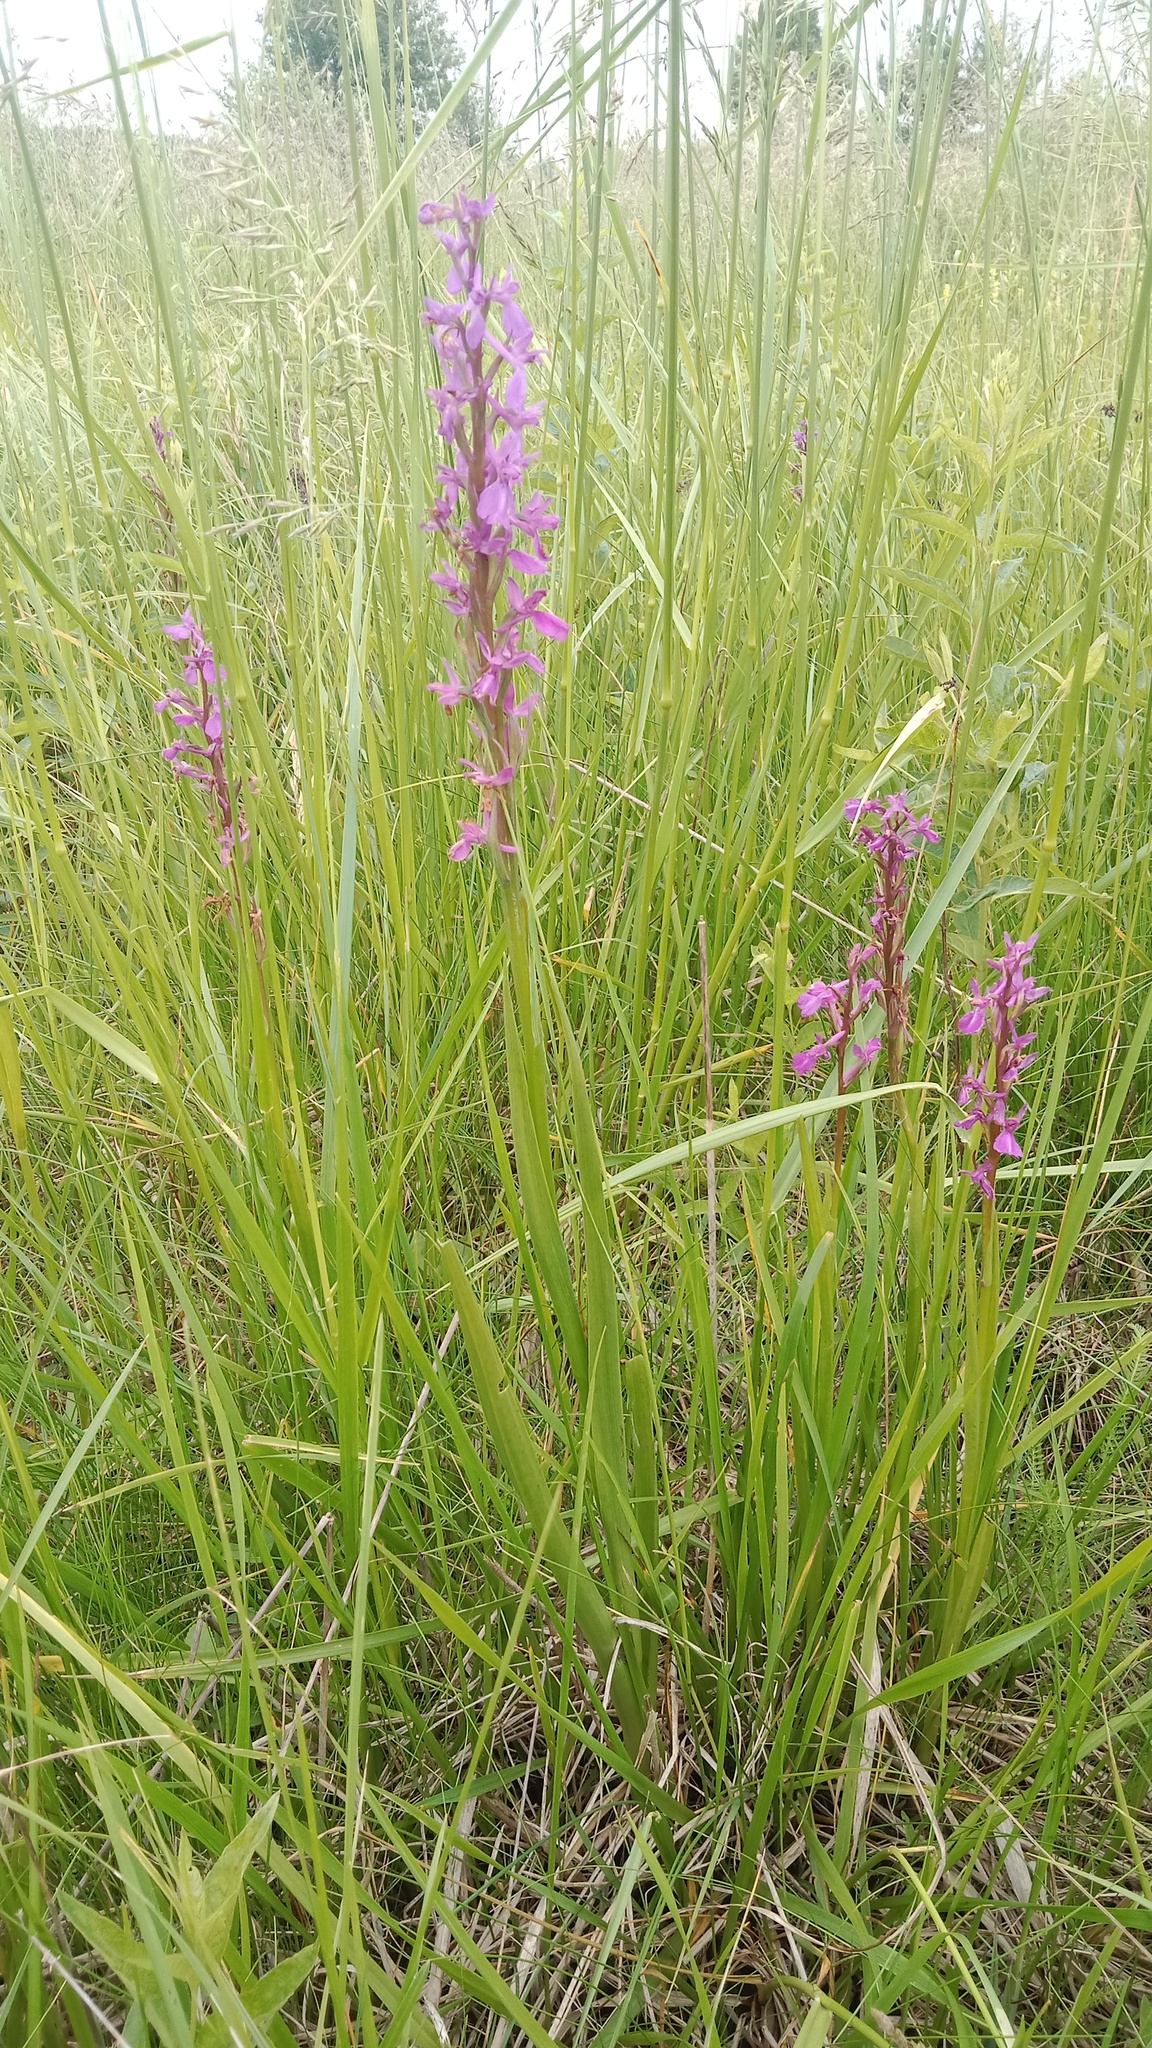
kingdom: Plantae
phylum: Tracheophyta
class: Liliopsida
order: Asparagales
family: Orchidaceae
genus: Anacamptis
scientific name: Anacamptis palustris
